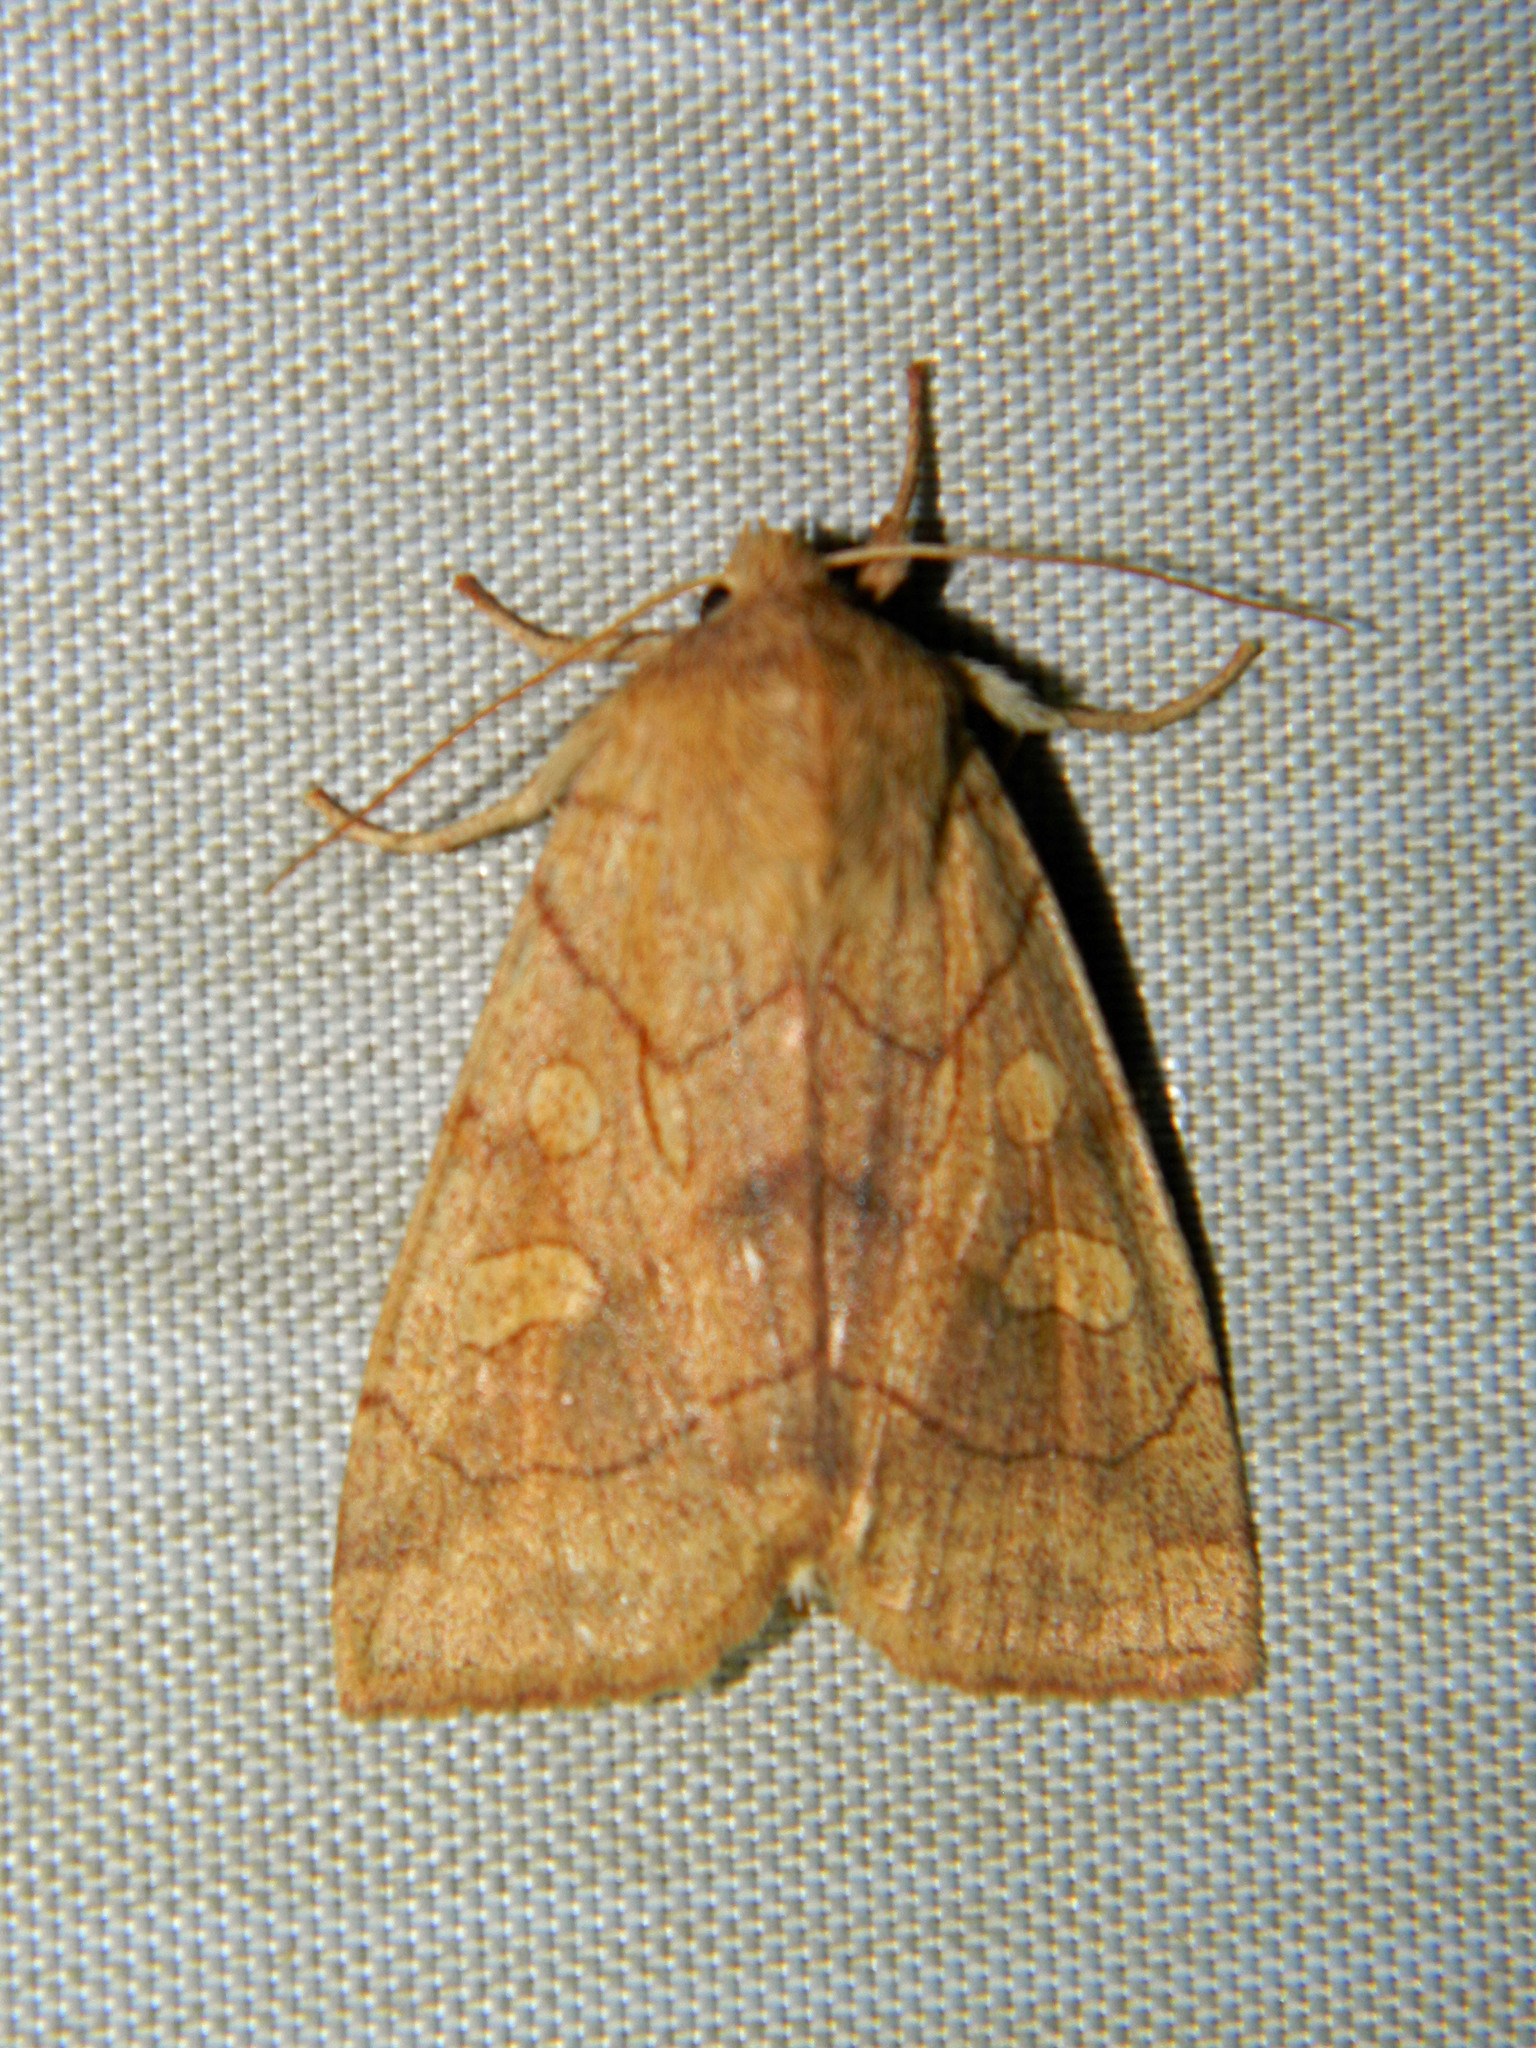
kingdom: Animalia
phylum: Arthropoda
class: Insecta
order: Lepidoptera
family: Noctuidae
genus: Enargia
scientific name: Enargia decolor
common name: Aspen twoleaf tier moth
